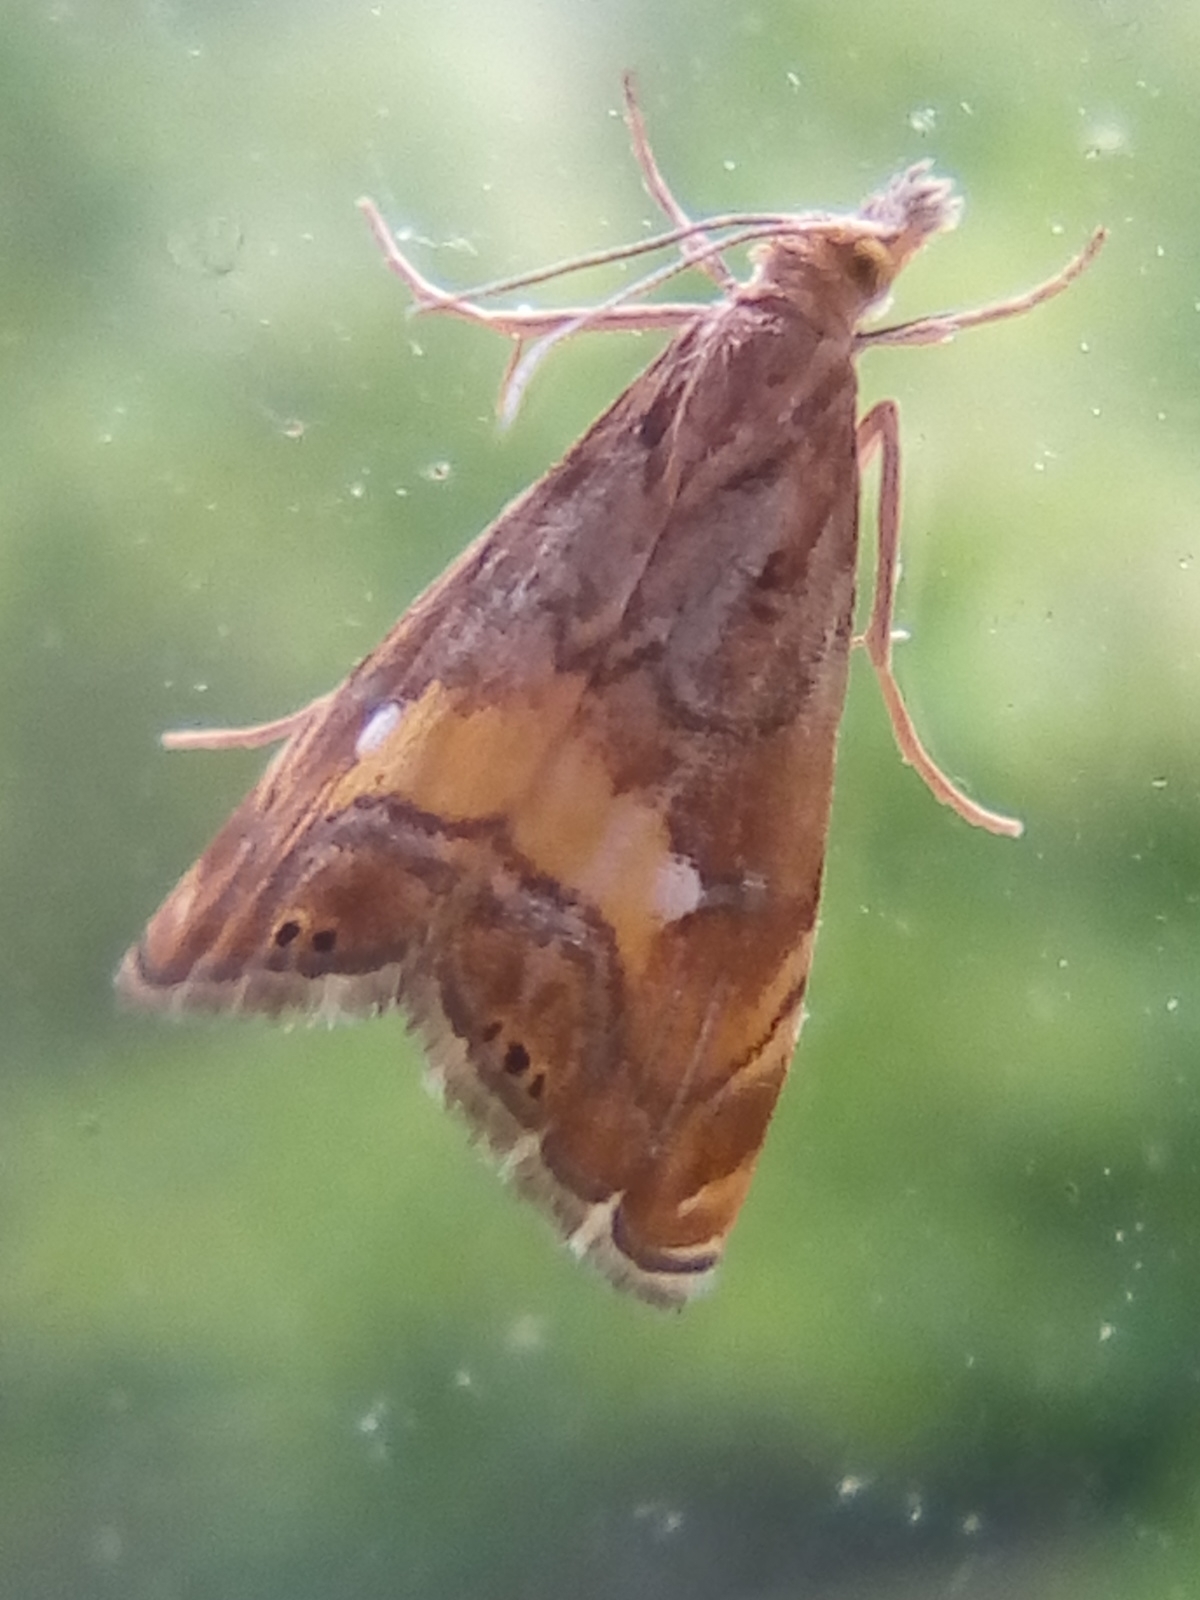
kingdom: Animalia
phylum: Arthropoda
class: Insecta
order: Lepidoptera
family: Crambidae
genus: Glaucocharis
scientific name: Glaucocharis chrysochyta
